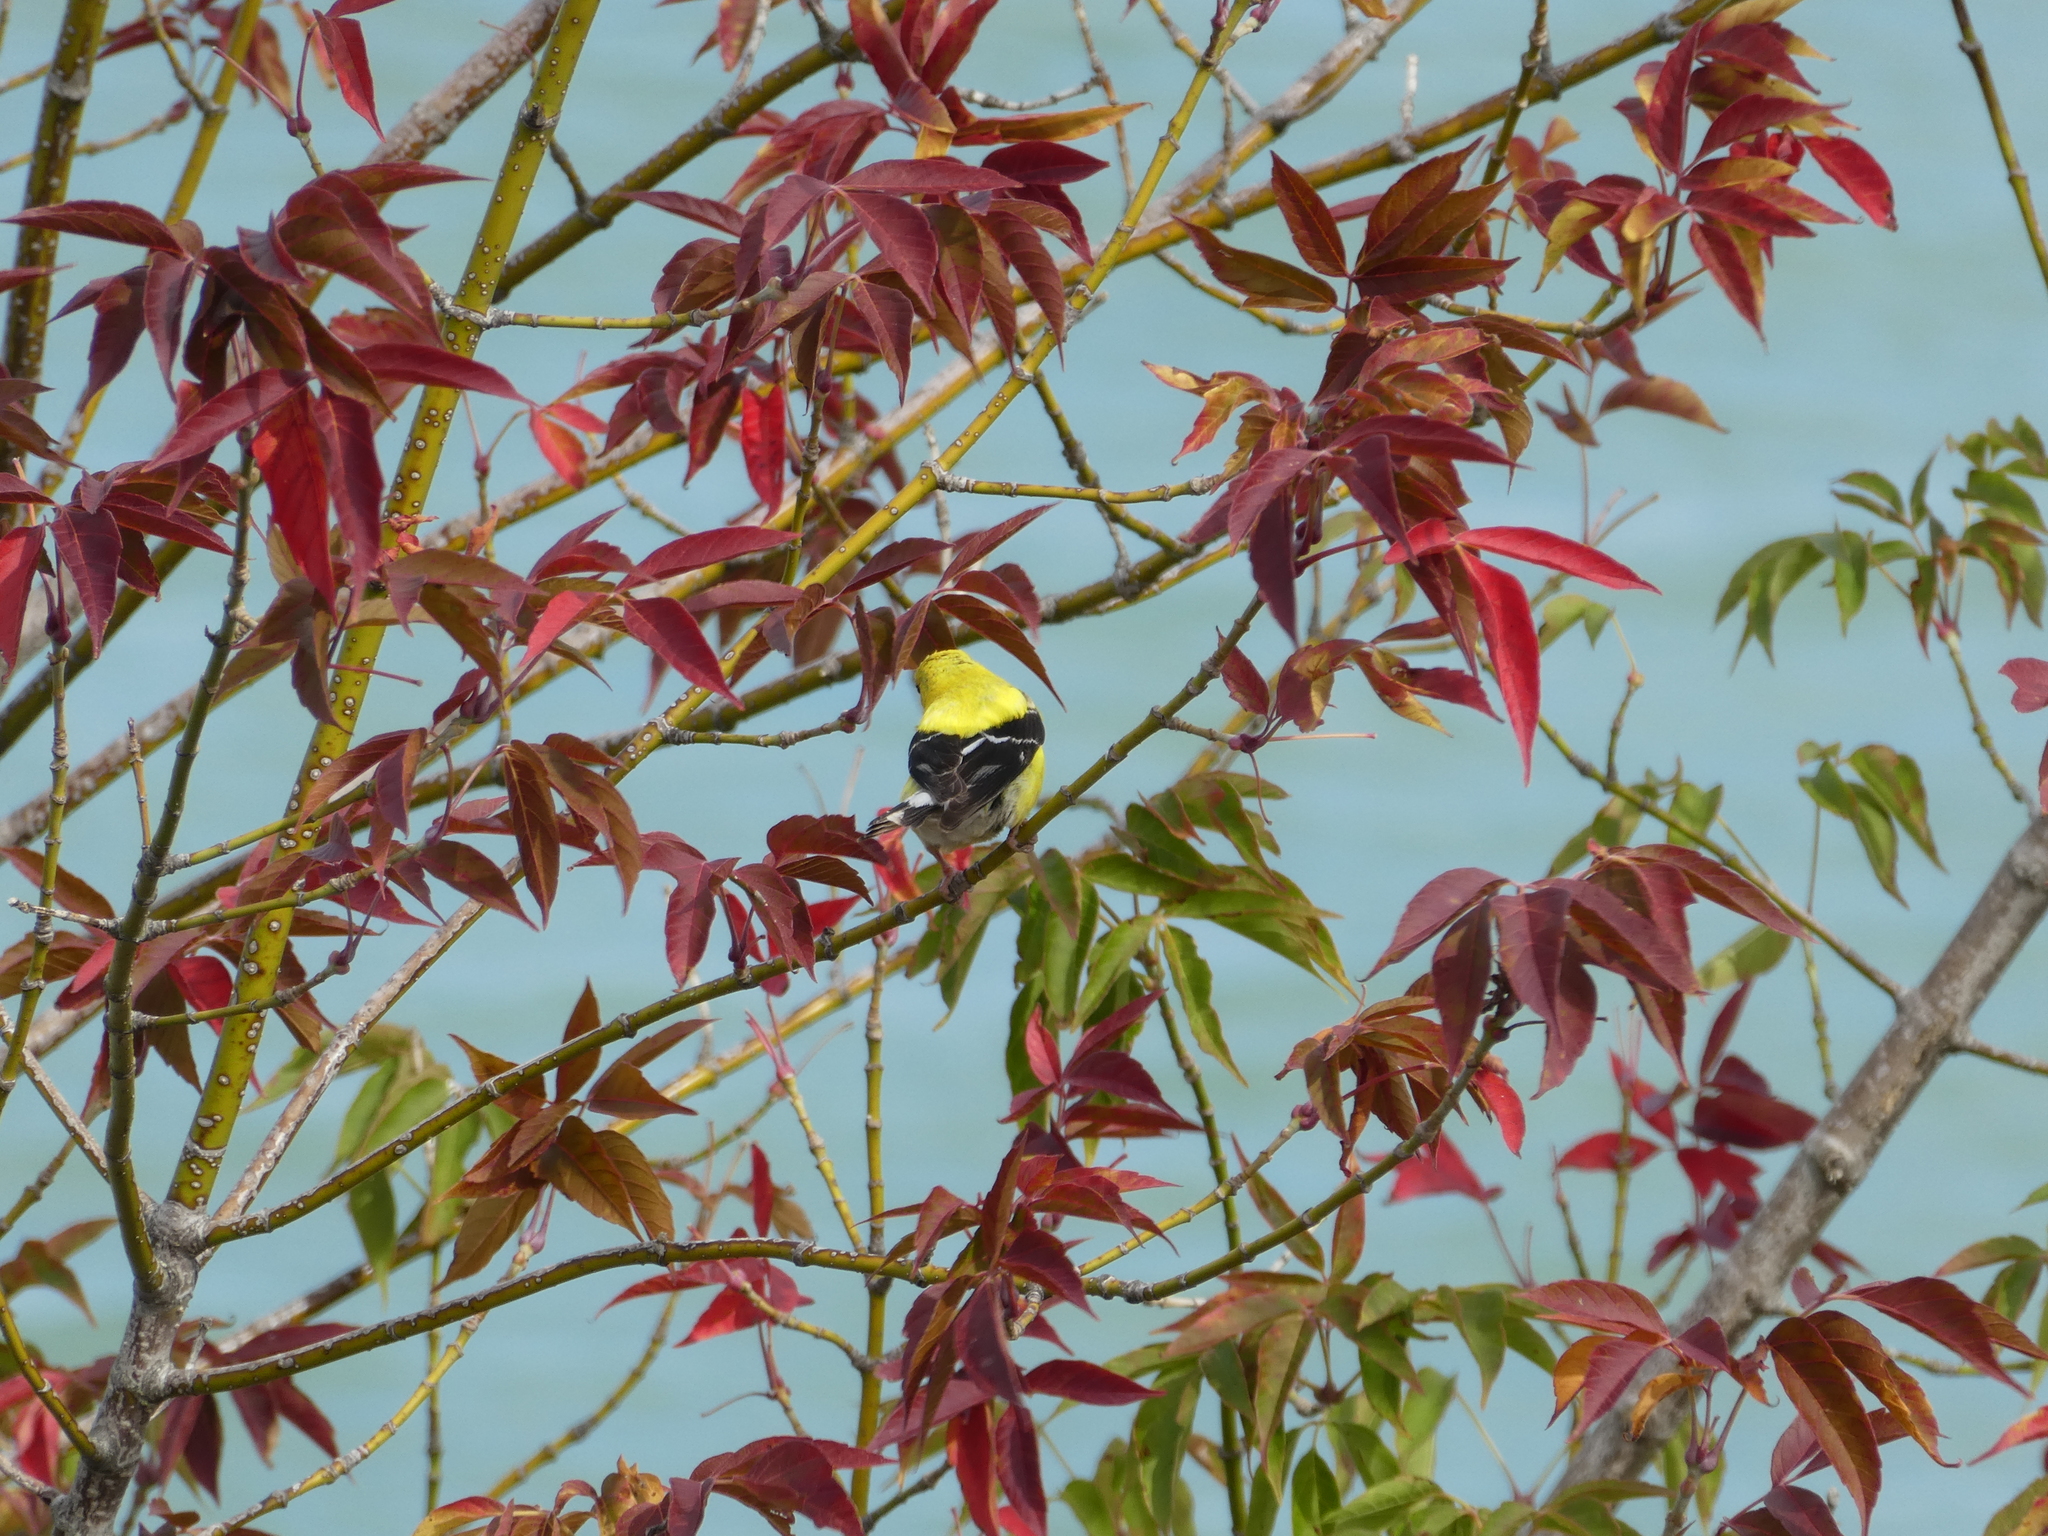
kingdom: Animalia
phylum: Chordata
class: Aves
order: Passeriformes
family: Fringillidae
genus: Spinus
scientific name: Spinus tristis
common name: American goldfinch
